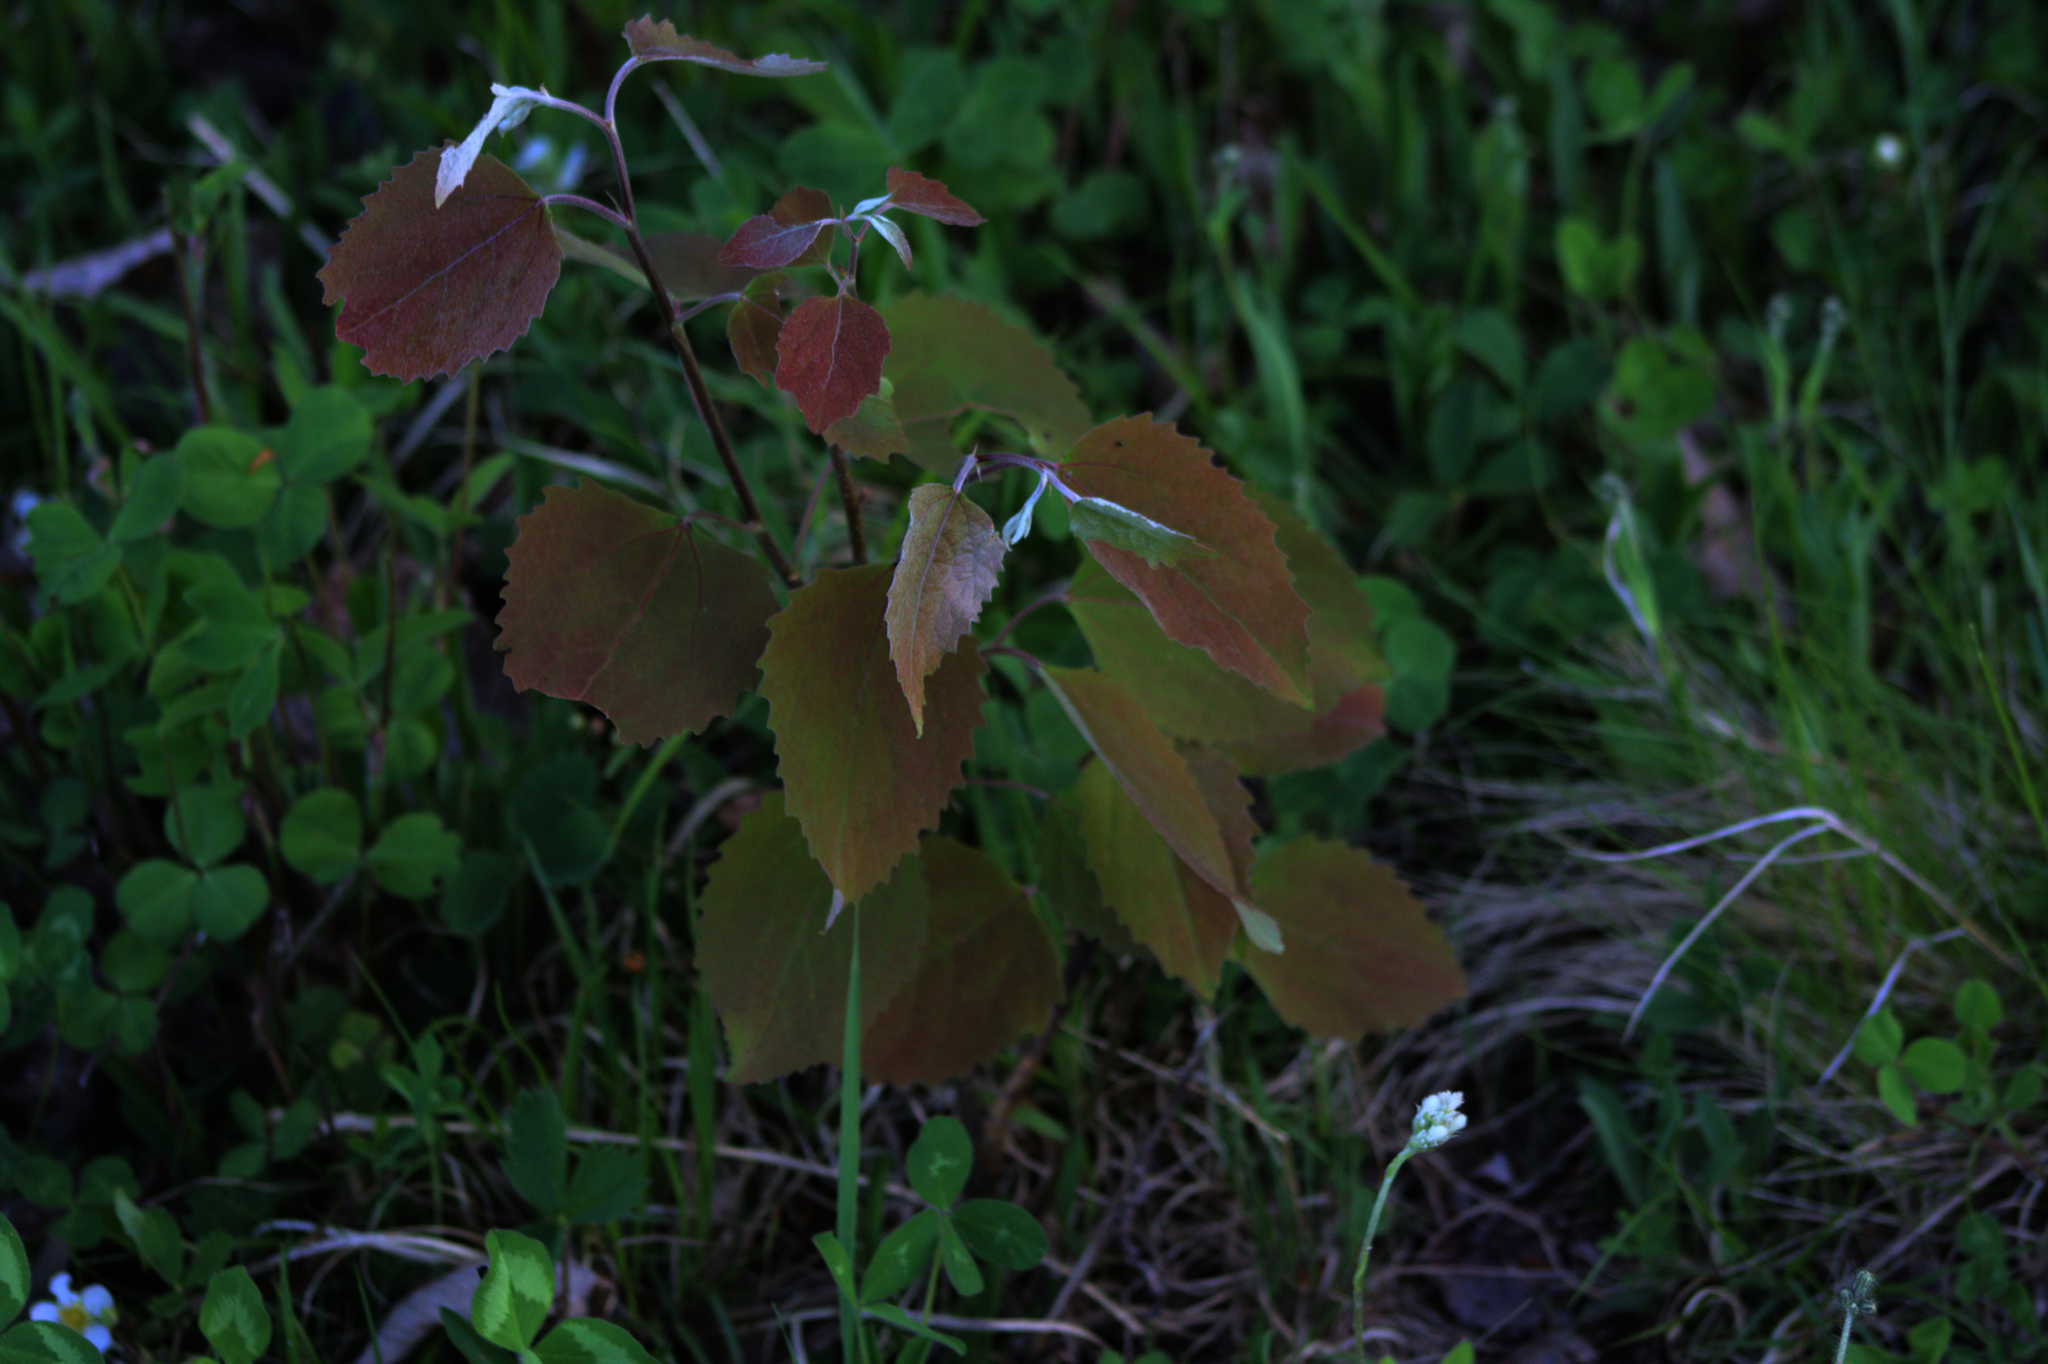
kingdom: Plantae
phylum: Tracheophyta
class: Magnoliopsida
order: Malpighiales
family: Salicaceae
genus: Populus
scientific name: Populus grandidentata
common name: Bigtooth aspen
